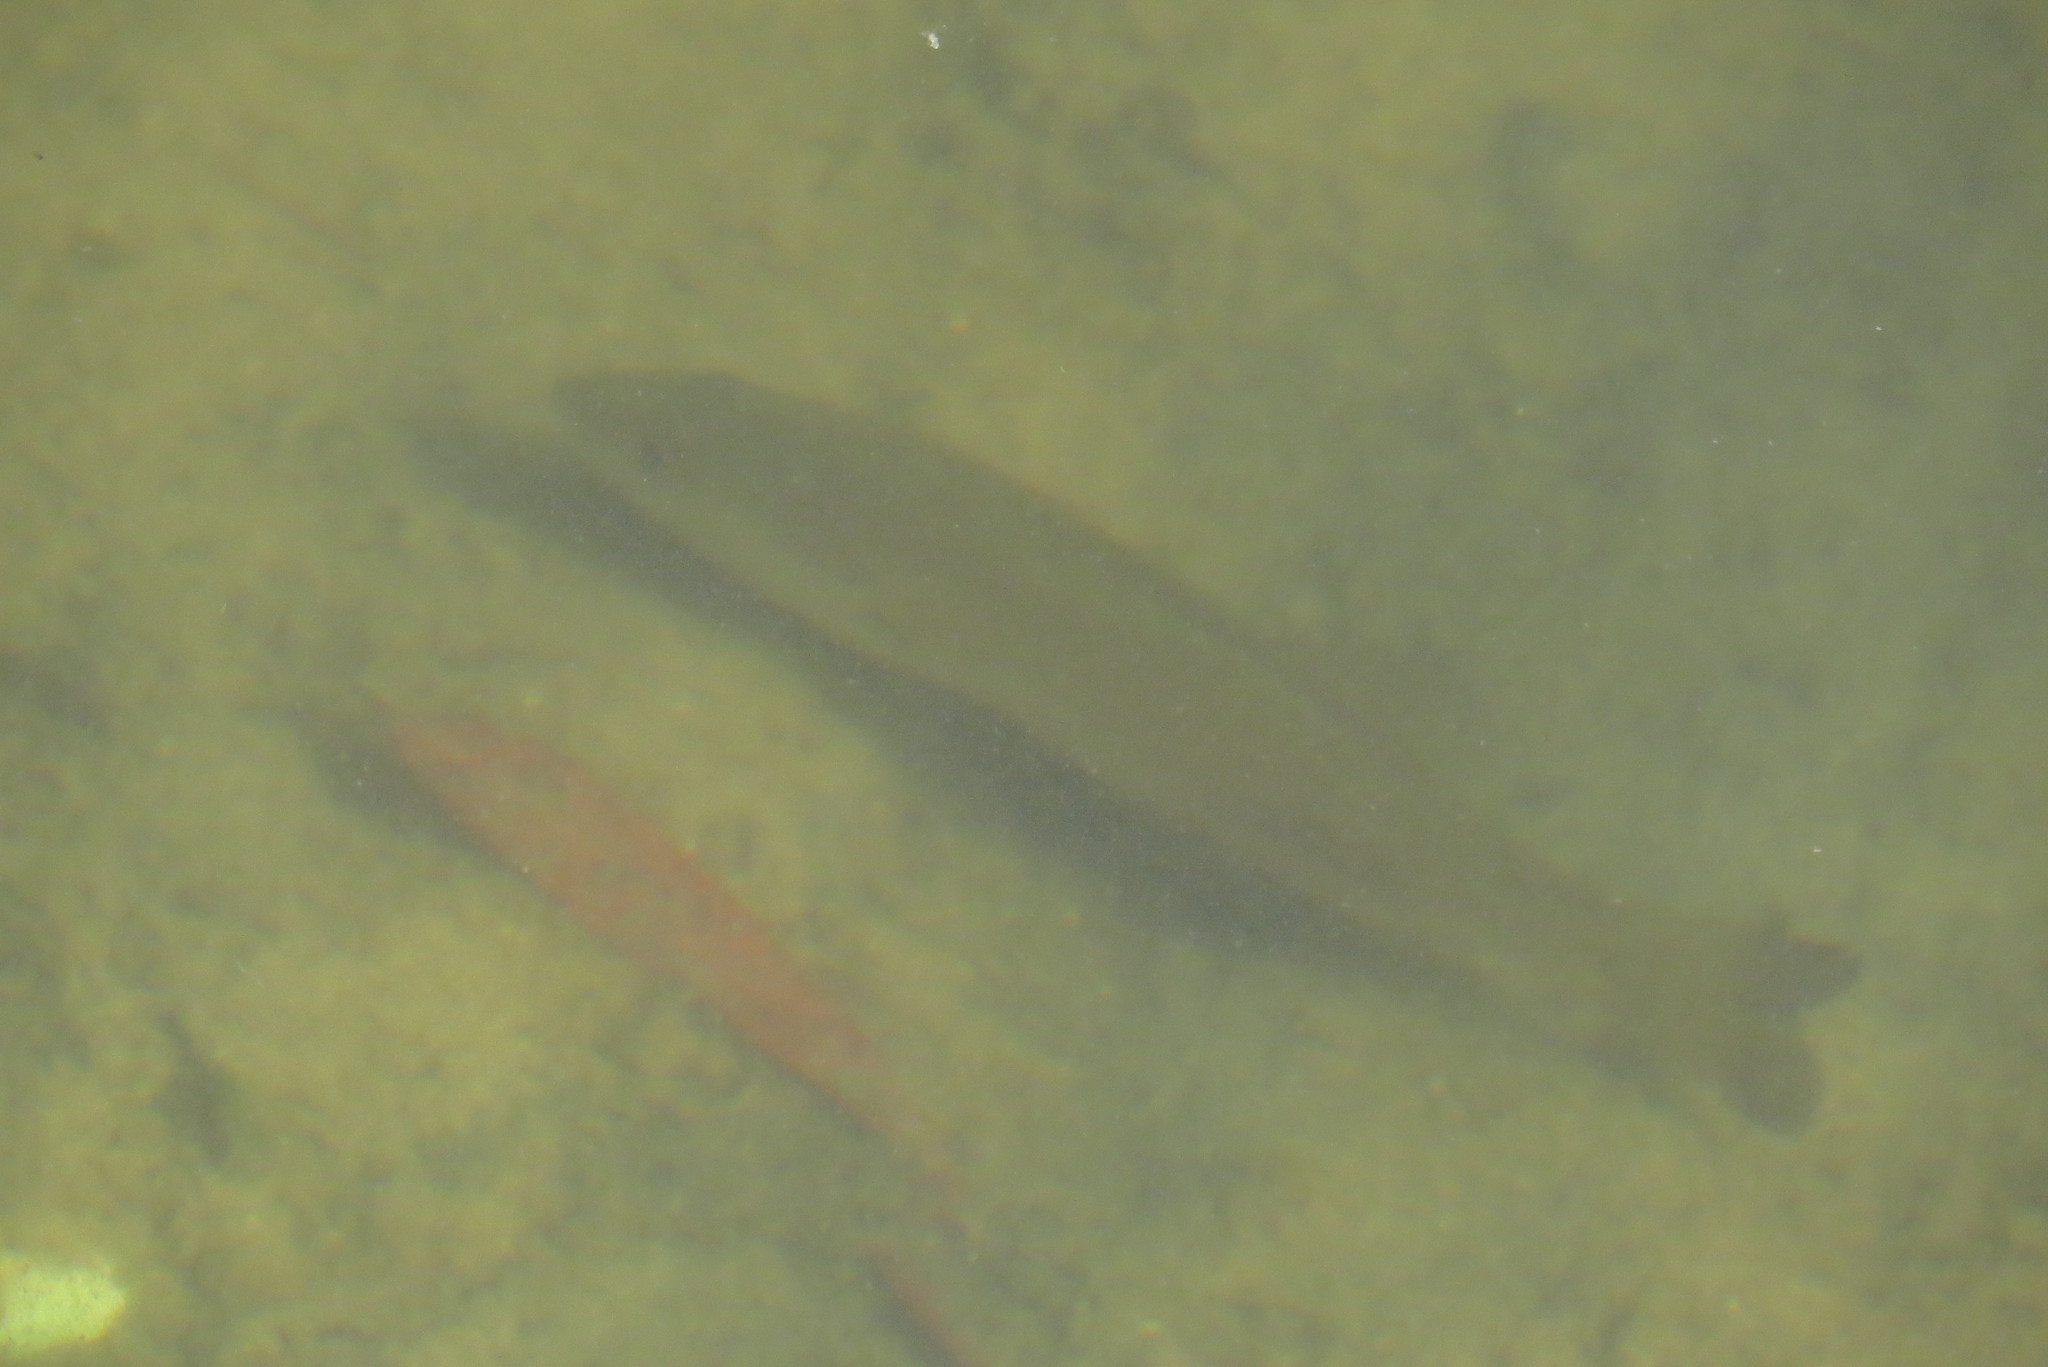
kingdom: Animalia
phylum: Chordata
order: Perciformes
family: Centrarchidae
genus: Micropterus
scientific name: Micropterus salmoides
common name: Largemouth bass
